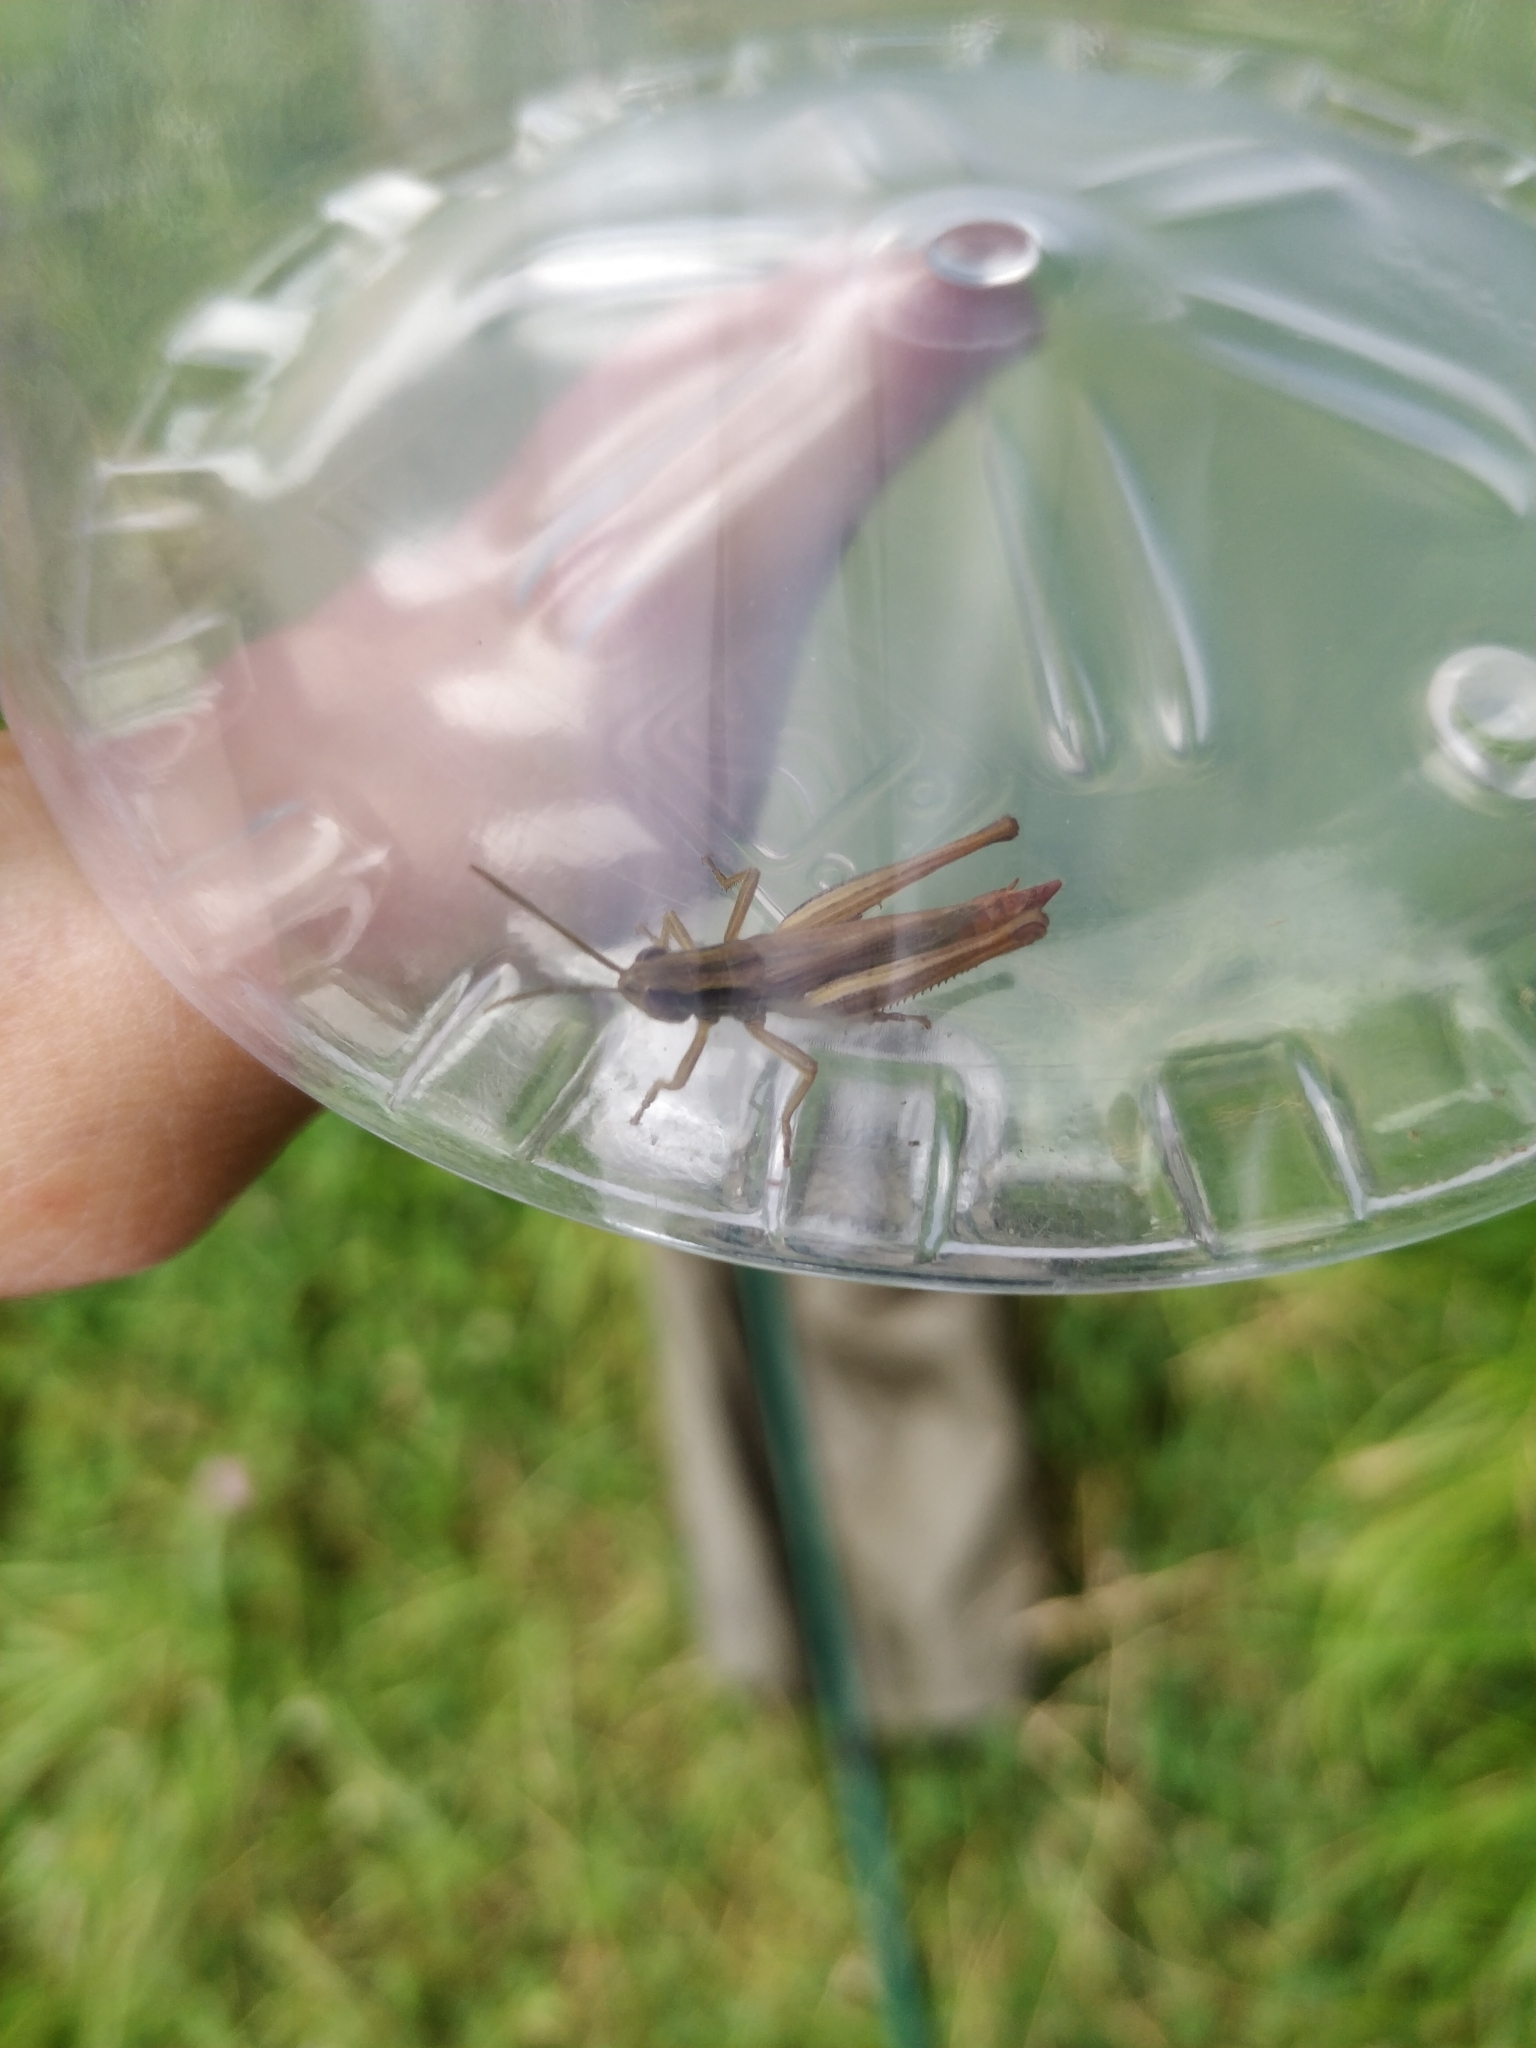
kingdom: Animalia
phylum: Arthropoda
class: Insecta
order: Orthoptera
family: Acrididae
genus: Euchorthippus
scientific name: Euchorthippus declivus
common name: Common straw grasshopper
